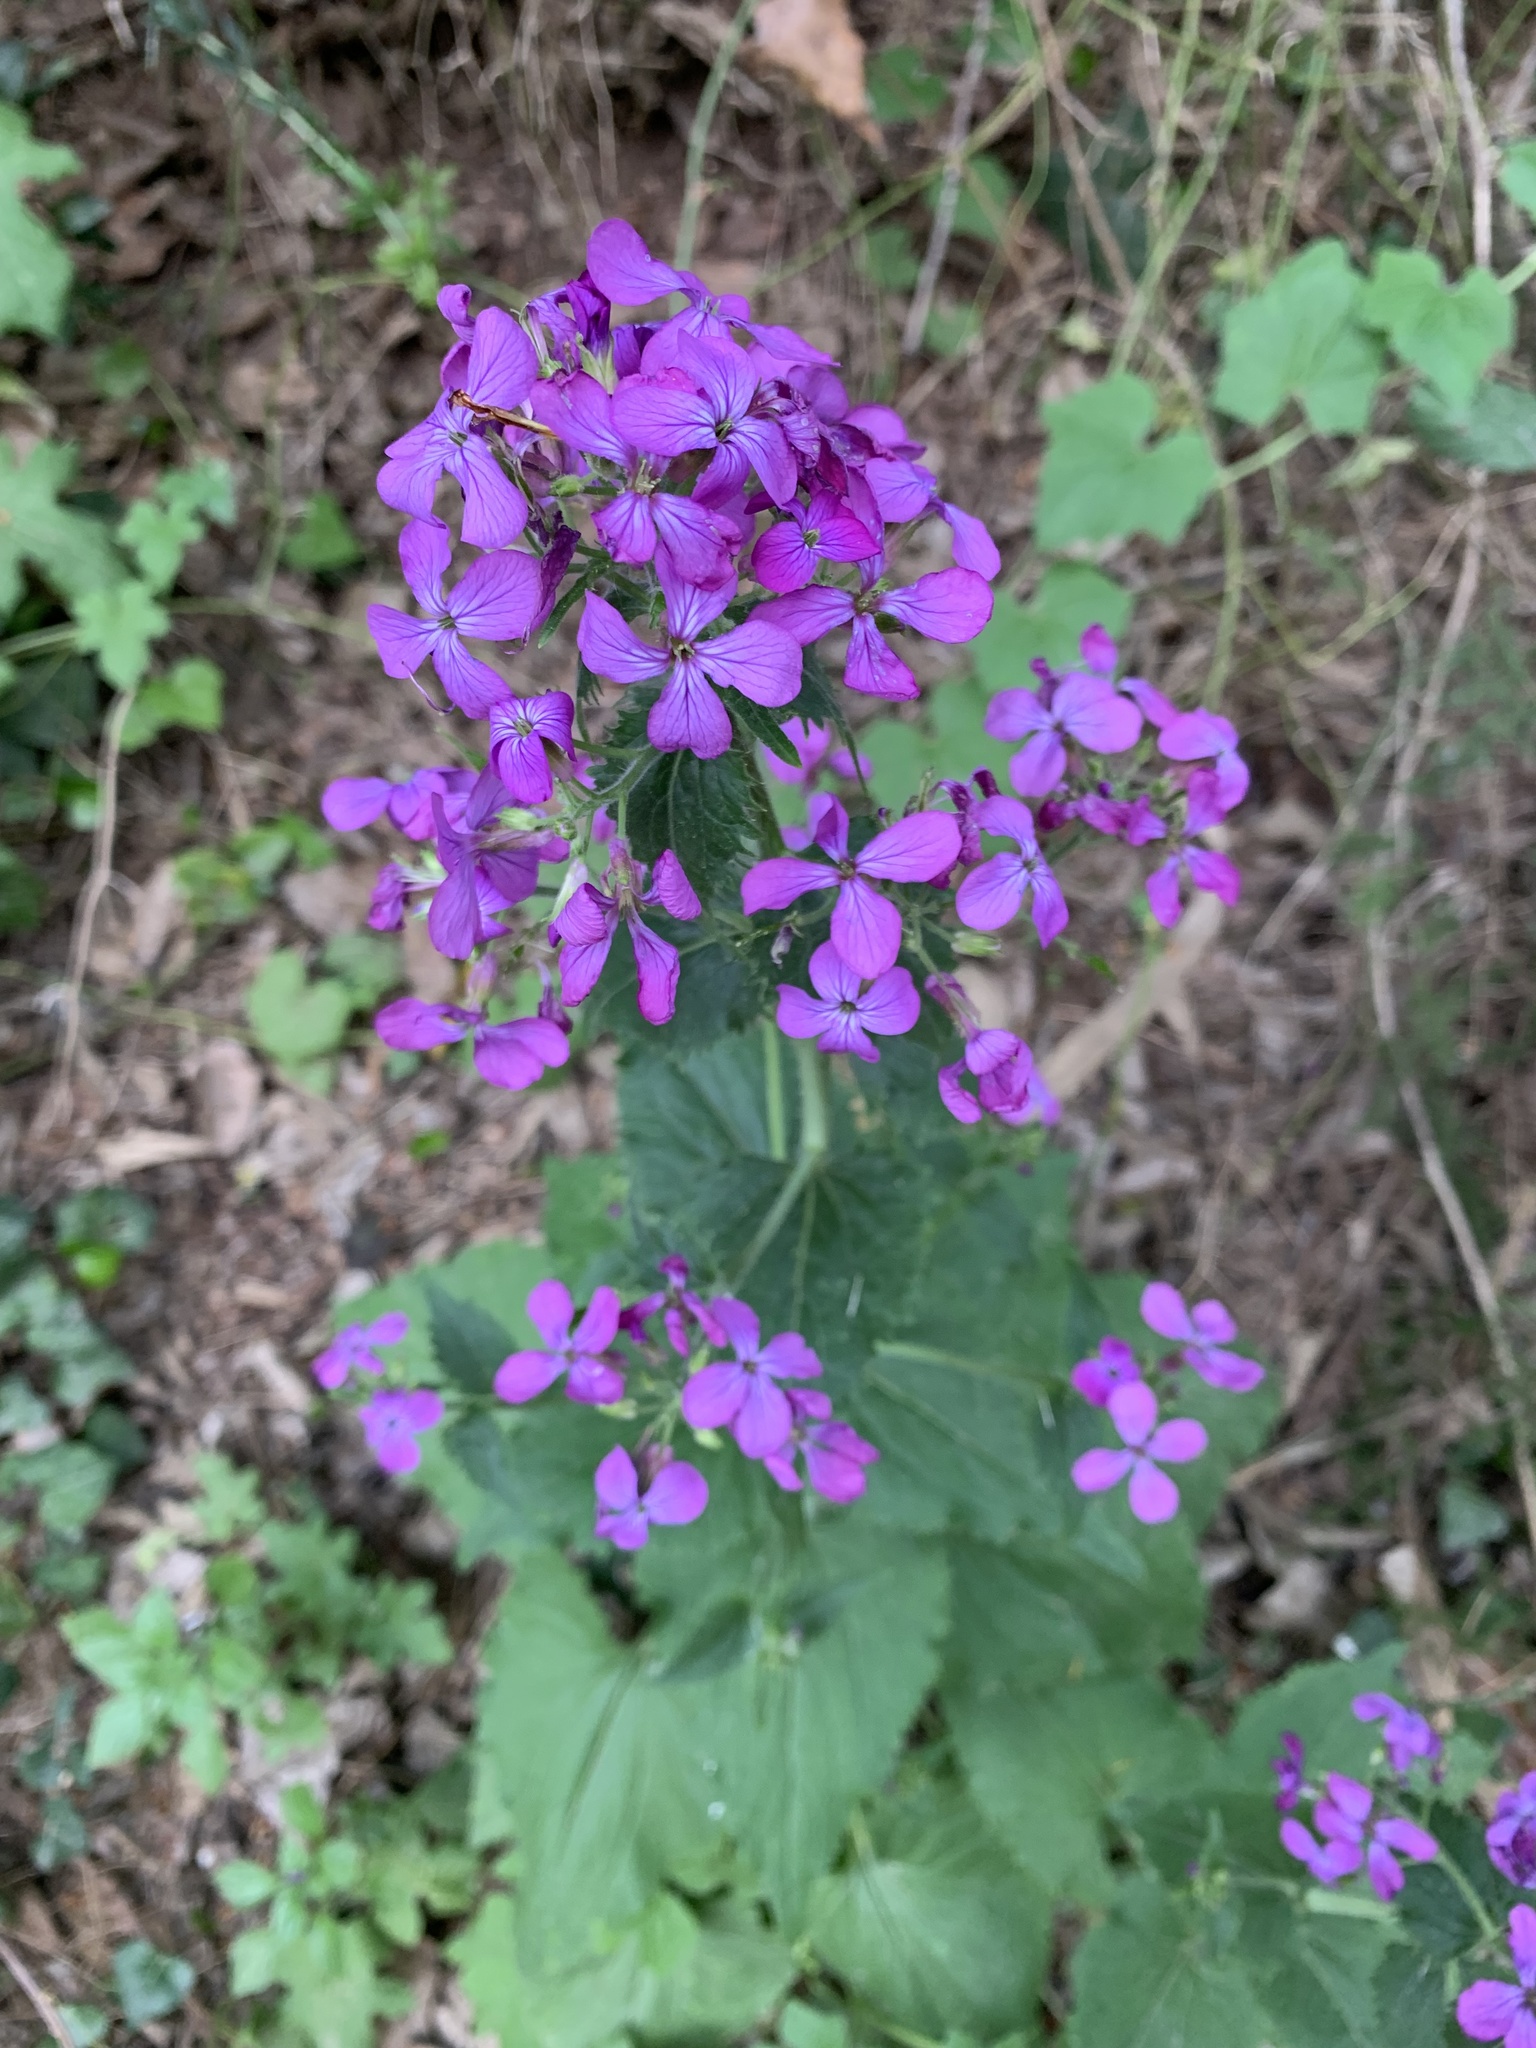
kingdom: Plantae
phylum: Tracheophyta
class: Magnoliopsida
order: Brassicales
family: Brassicaceae
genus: Lunaria
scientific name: Lunaria annua
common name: Honesty
